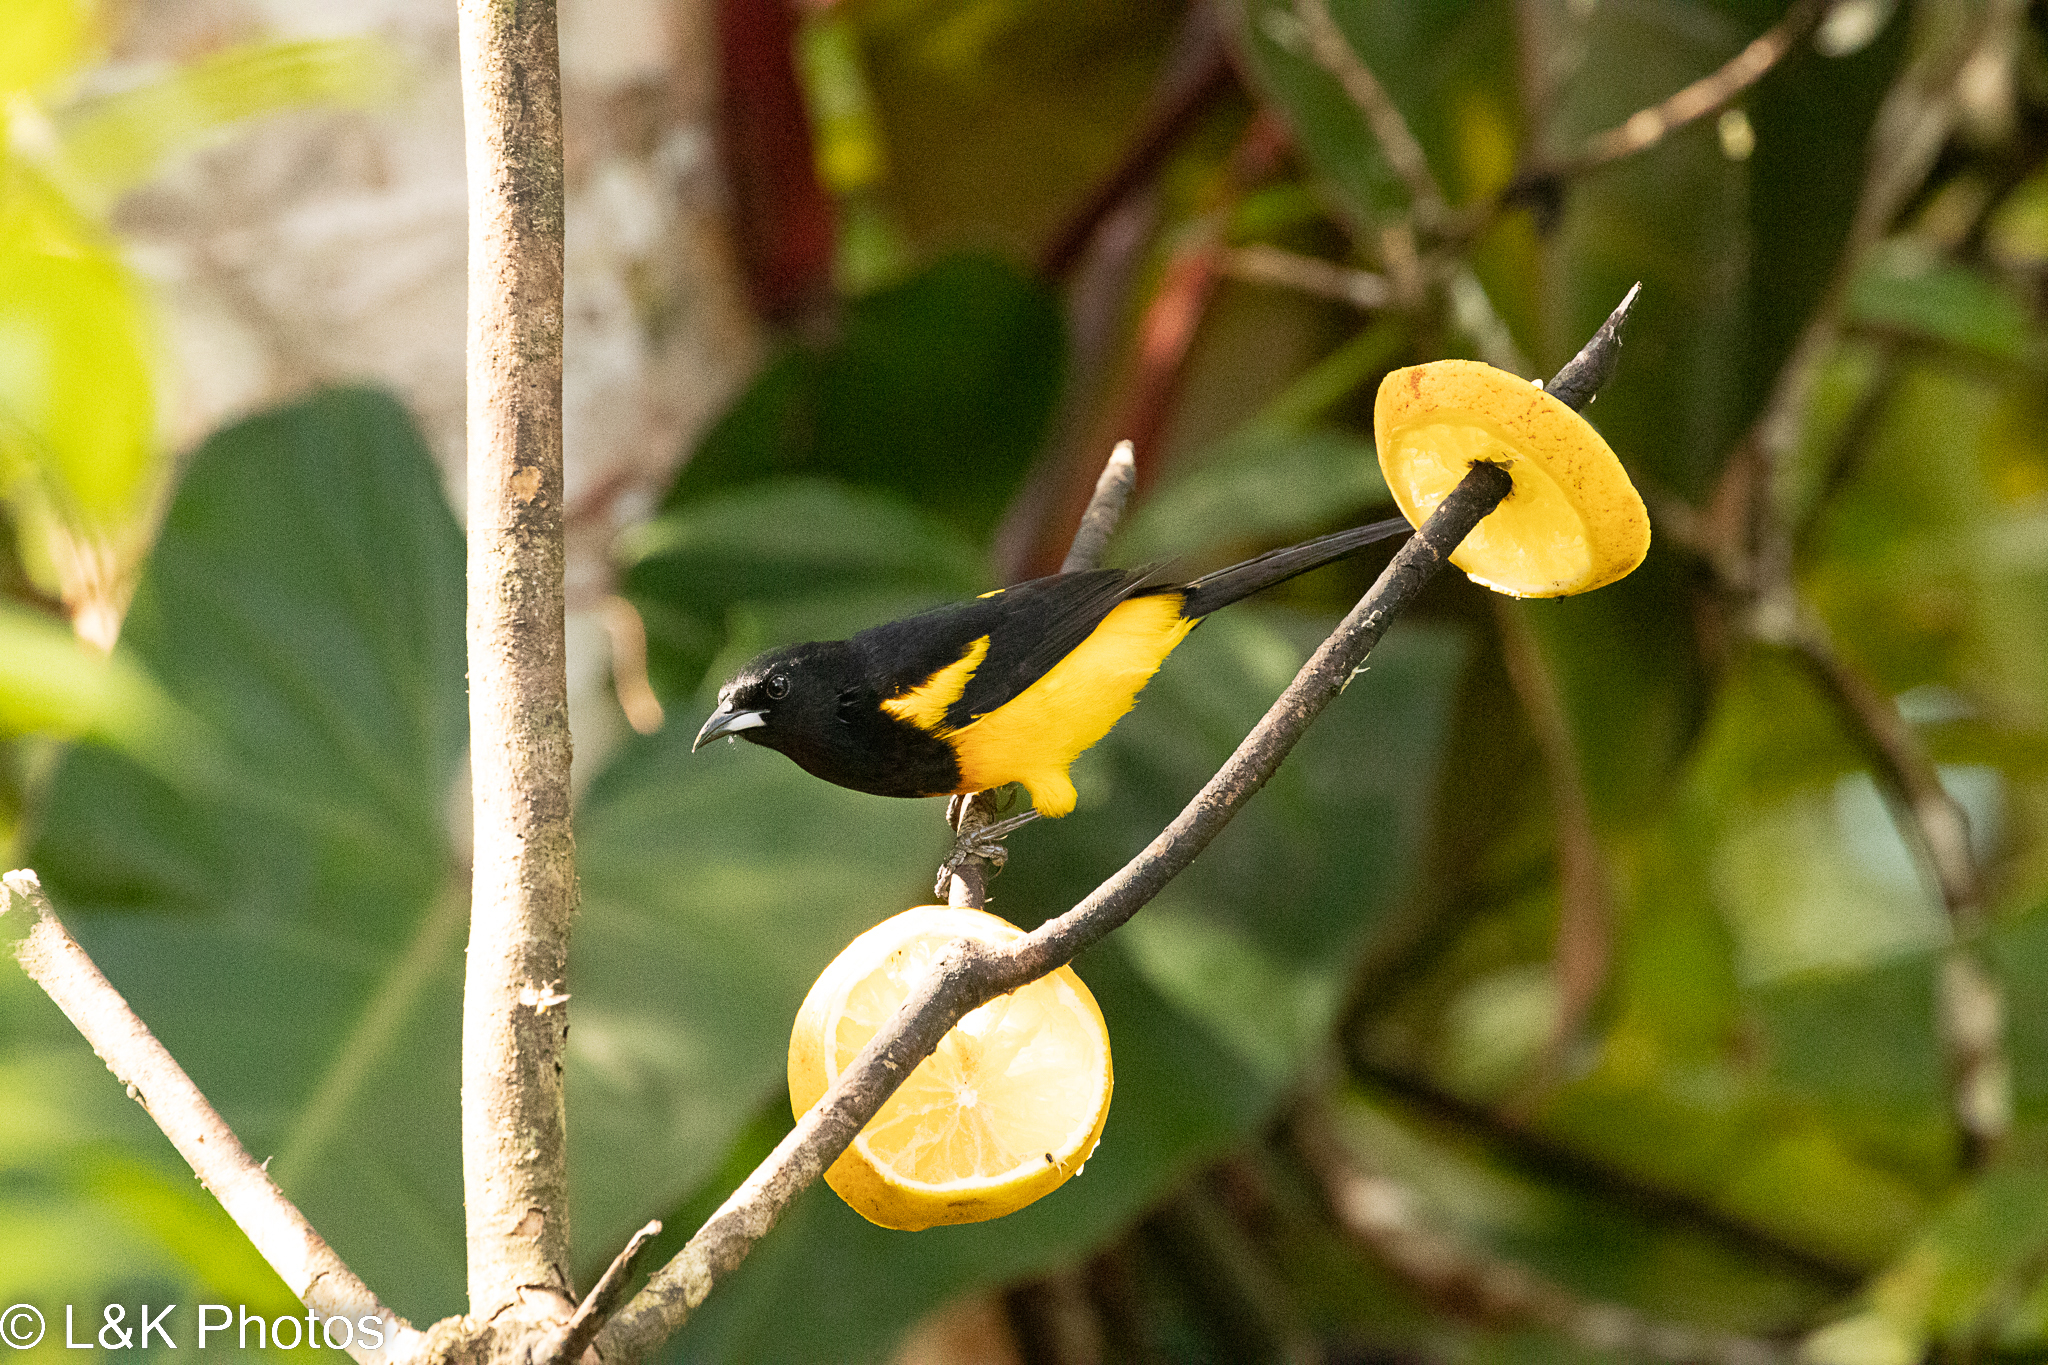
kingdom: Animalia
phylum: Chordata
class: Aves
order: Passeriformes
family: Icteridae
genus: Icterus
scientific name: Icterus prosthemelas
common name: Black-cowled oriole
